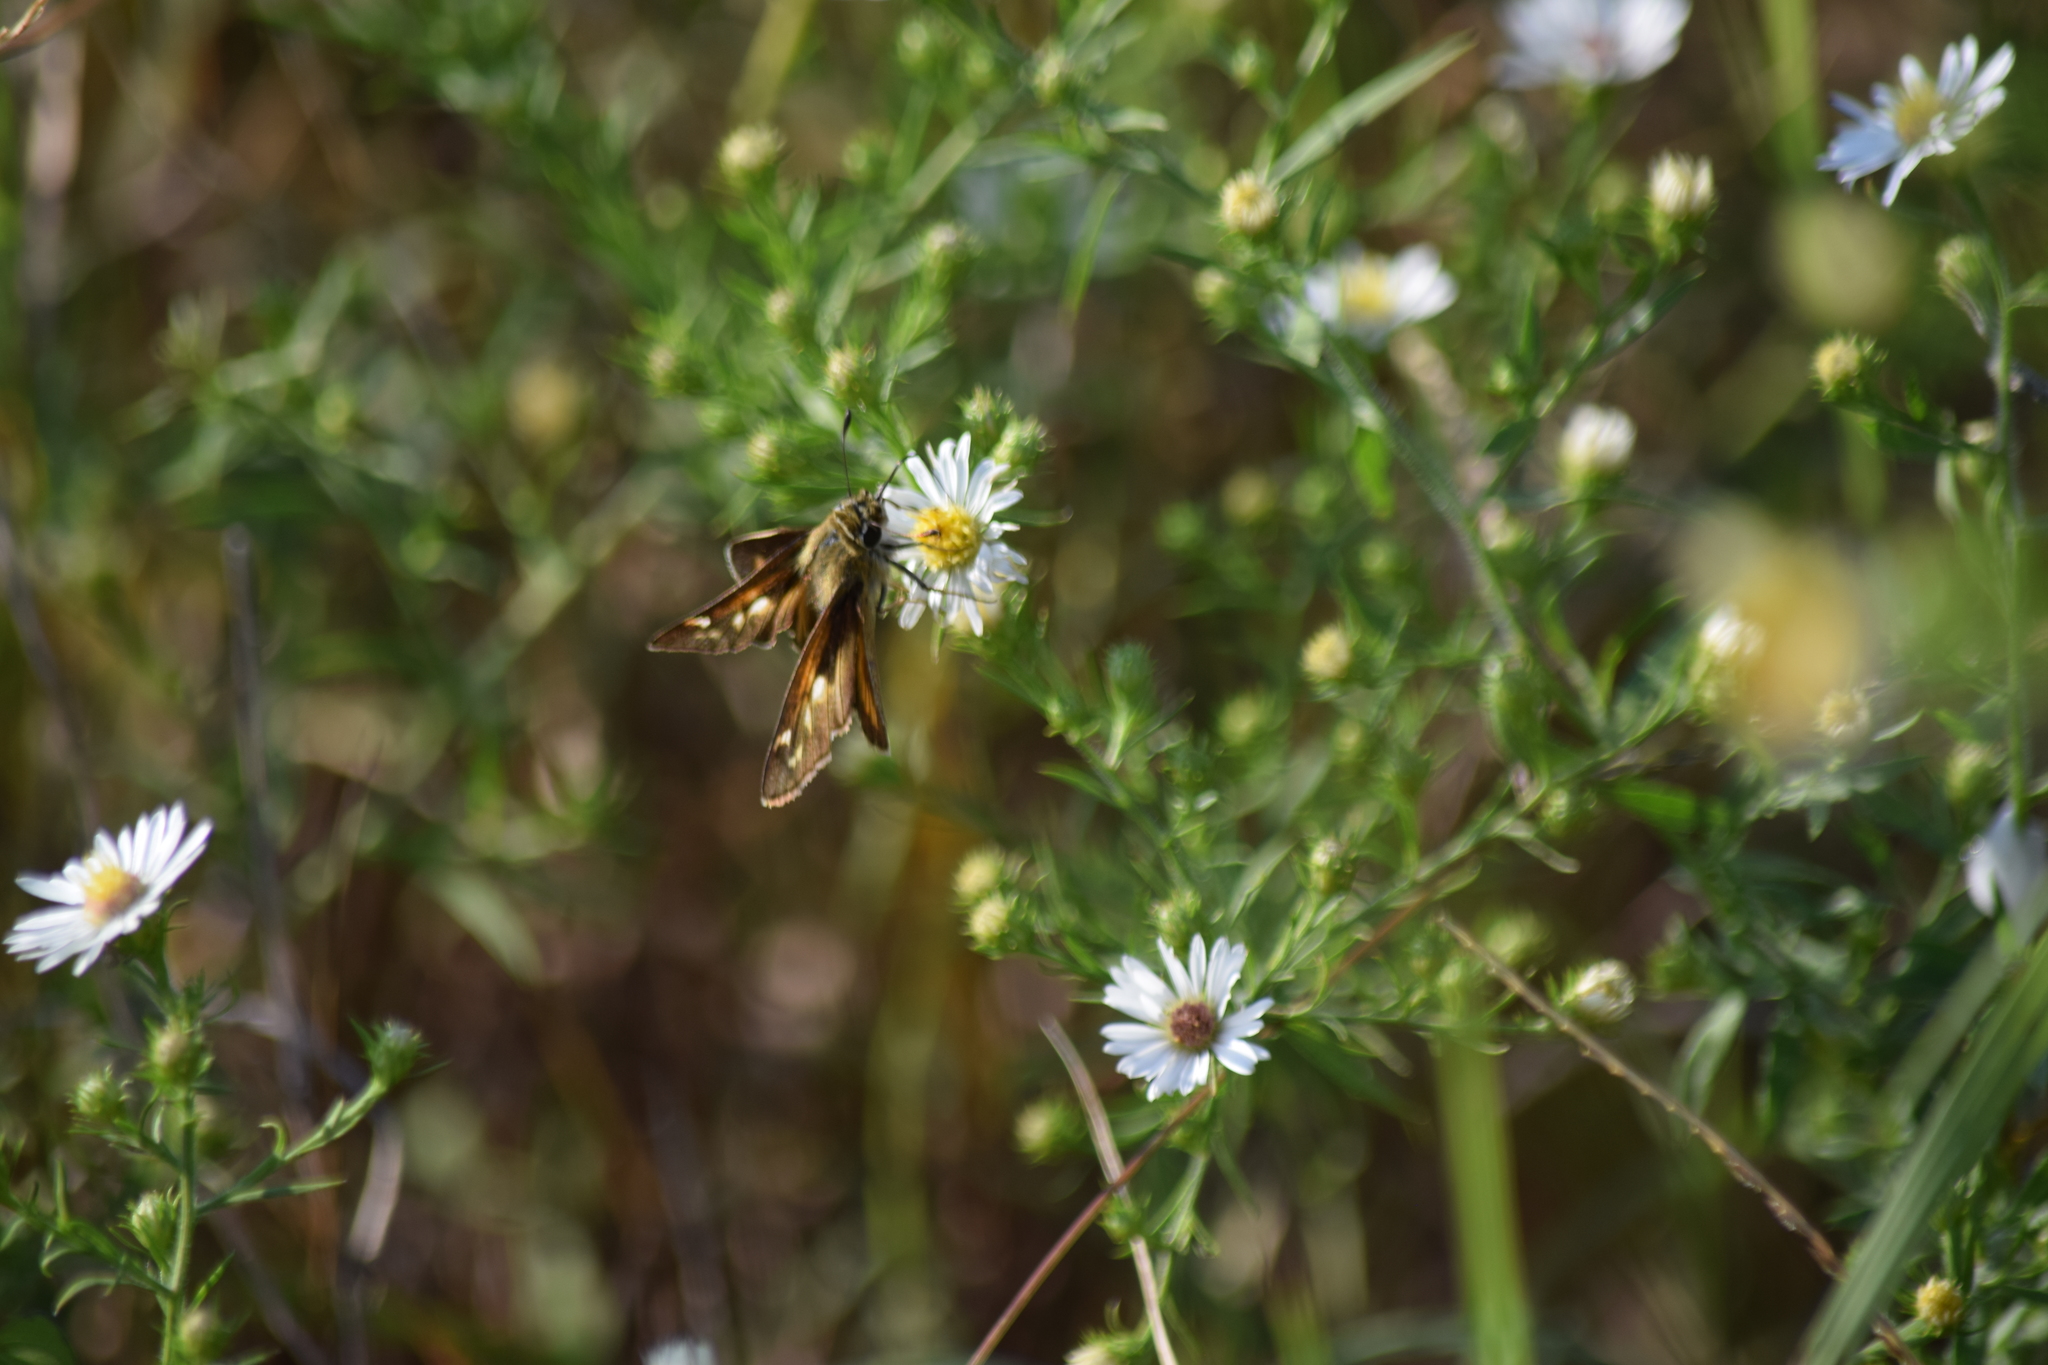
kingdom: Animalia
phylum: Arthropoda
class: Insecta
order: Lepidoptera
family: Hesperiidae
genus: Atalopedes
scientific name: Atalopedes
